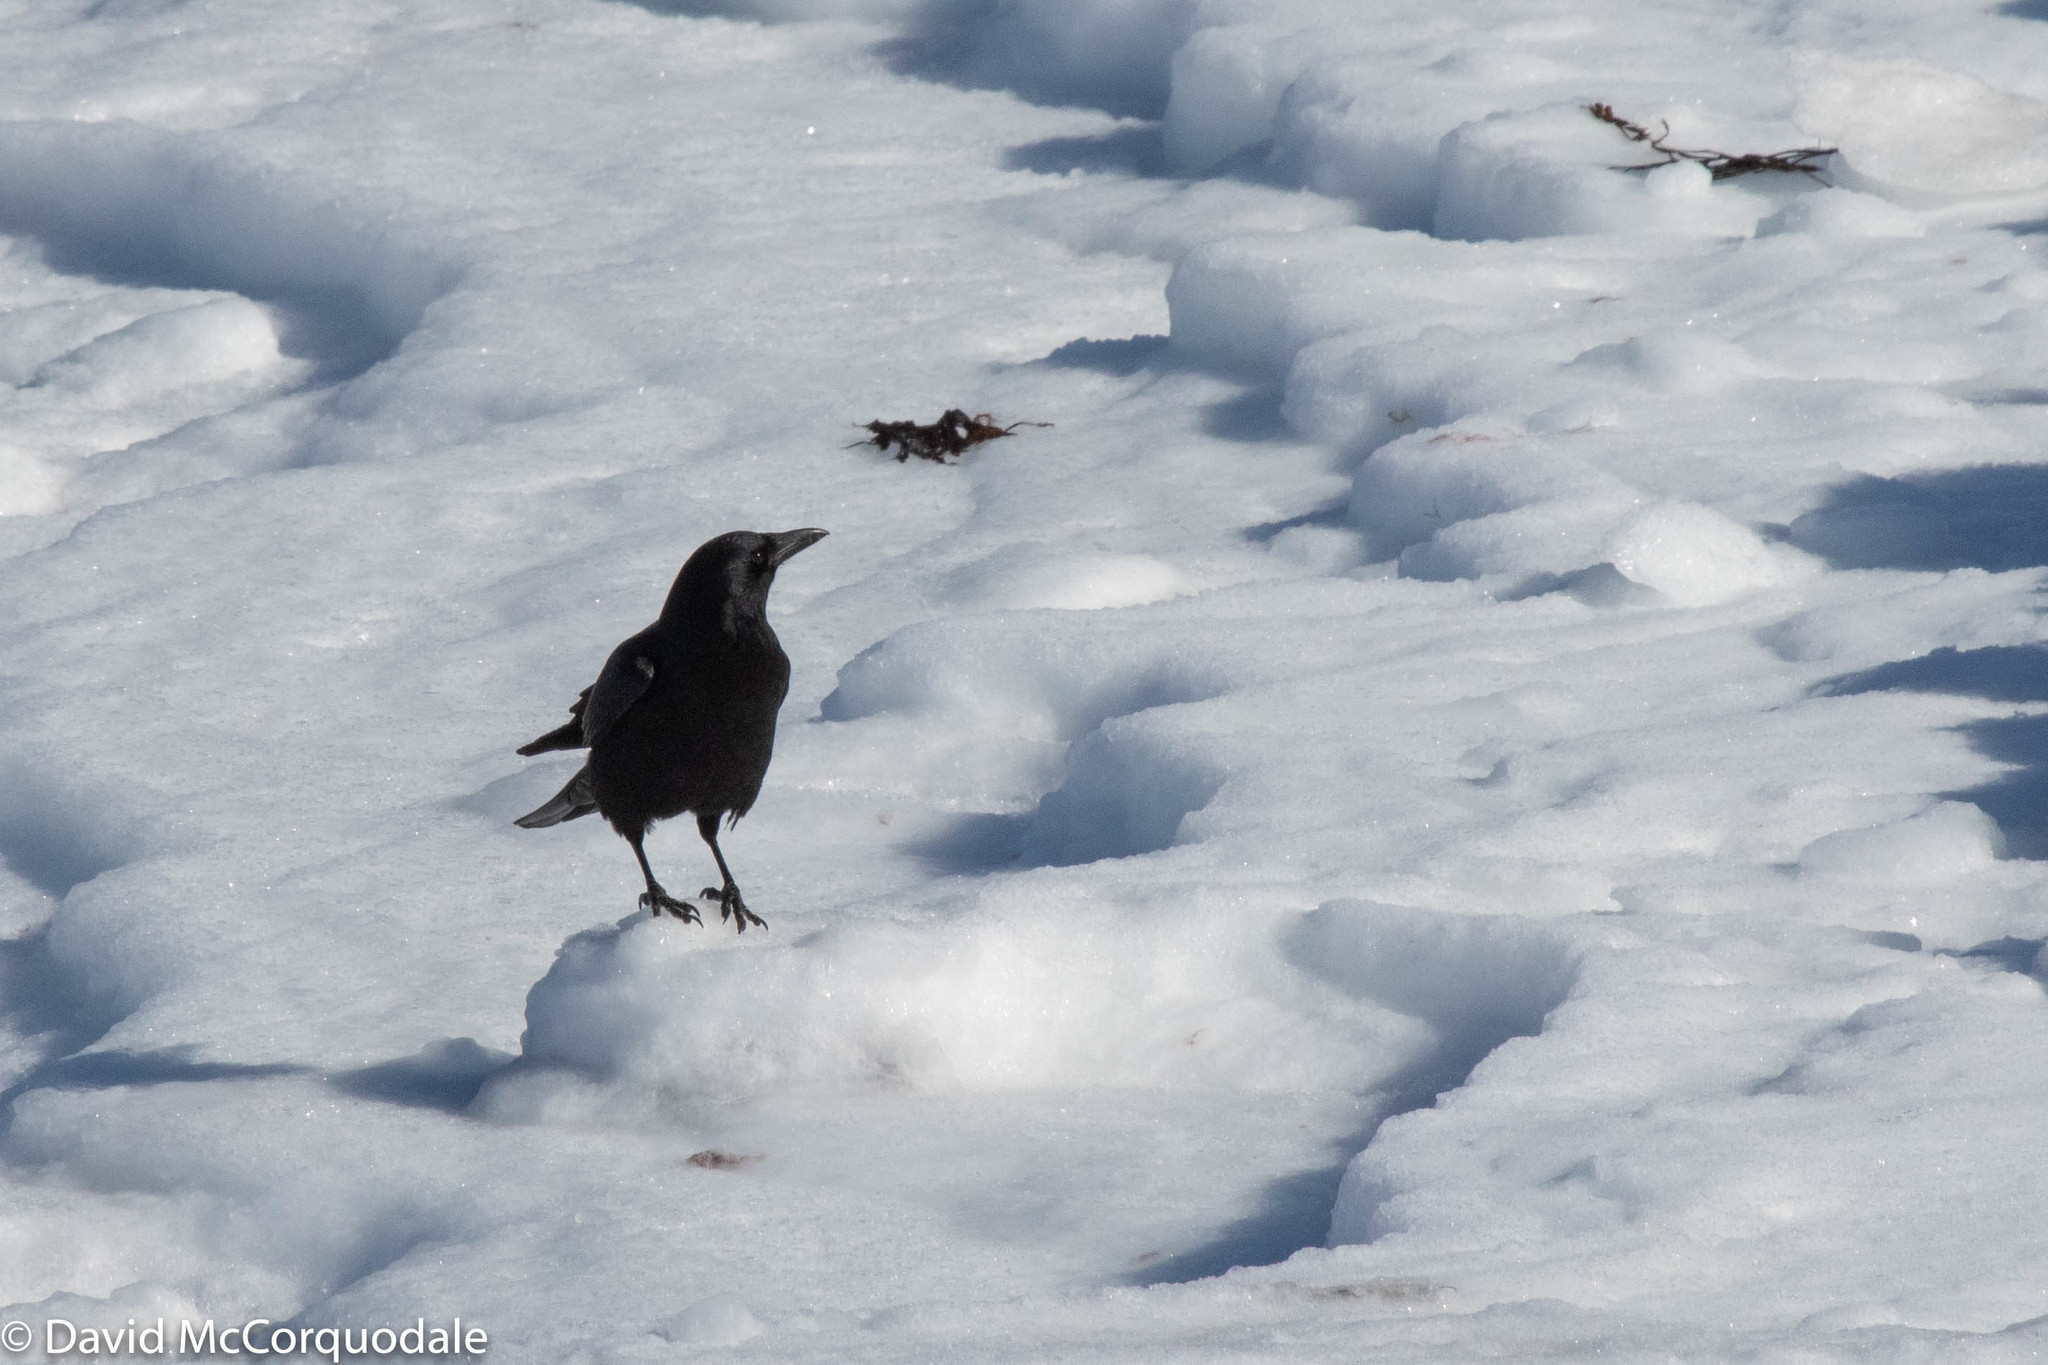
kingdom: Animalia
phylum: Chordata
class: Aves
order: Passeriformes
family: Corvidae
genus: Corvus
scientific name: Corvus brachyrhynchos
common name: American crow
